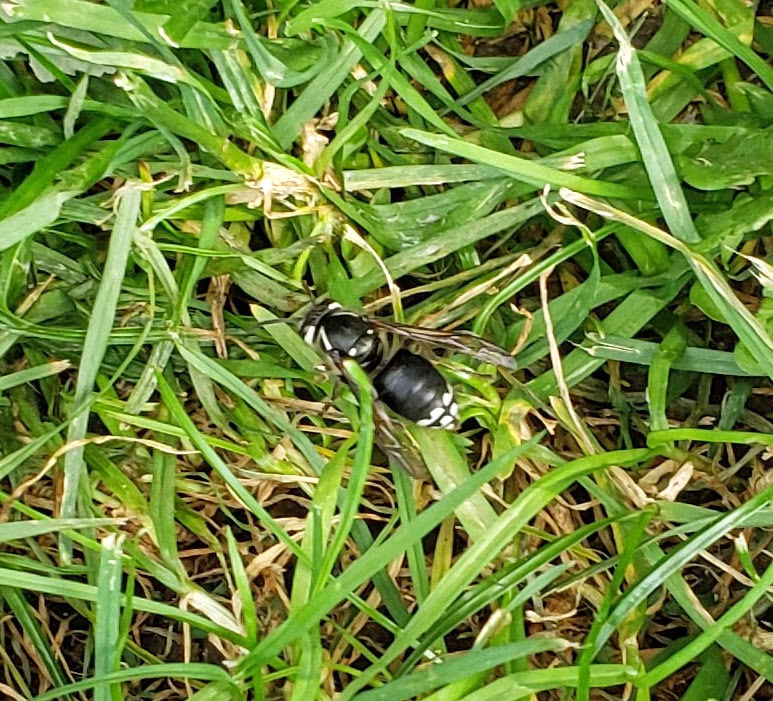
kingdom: Animalia
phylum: Arthropoda
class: Insecta
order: Hymenoptera
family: Vespidae
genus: Dolichovespula
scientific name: Dolichovespula maculata
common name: Bald-faced hornet
